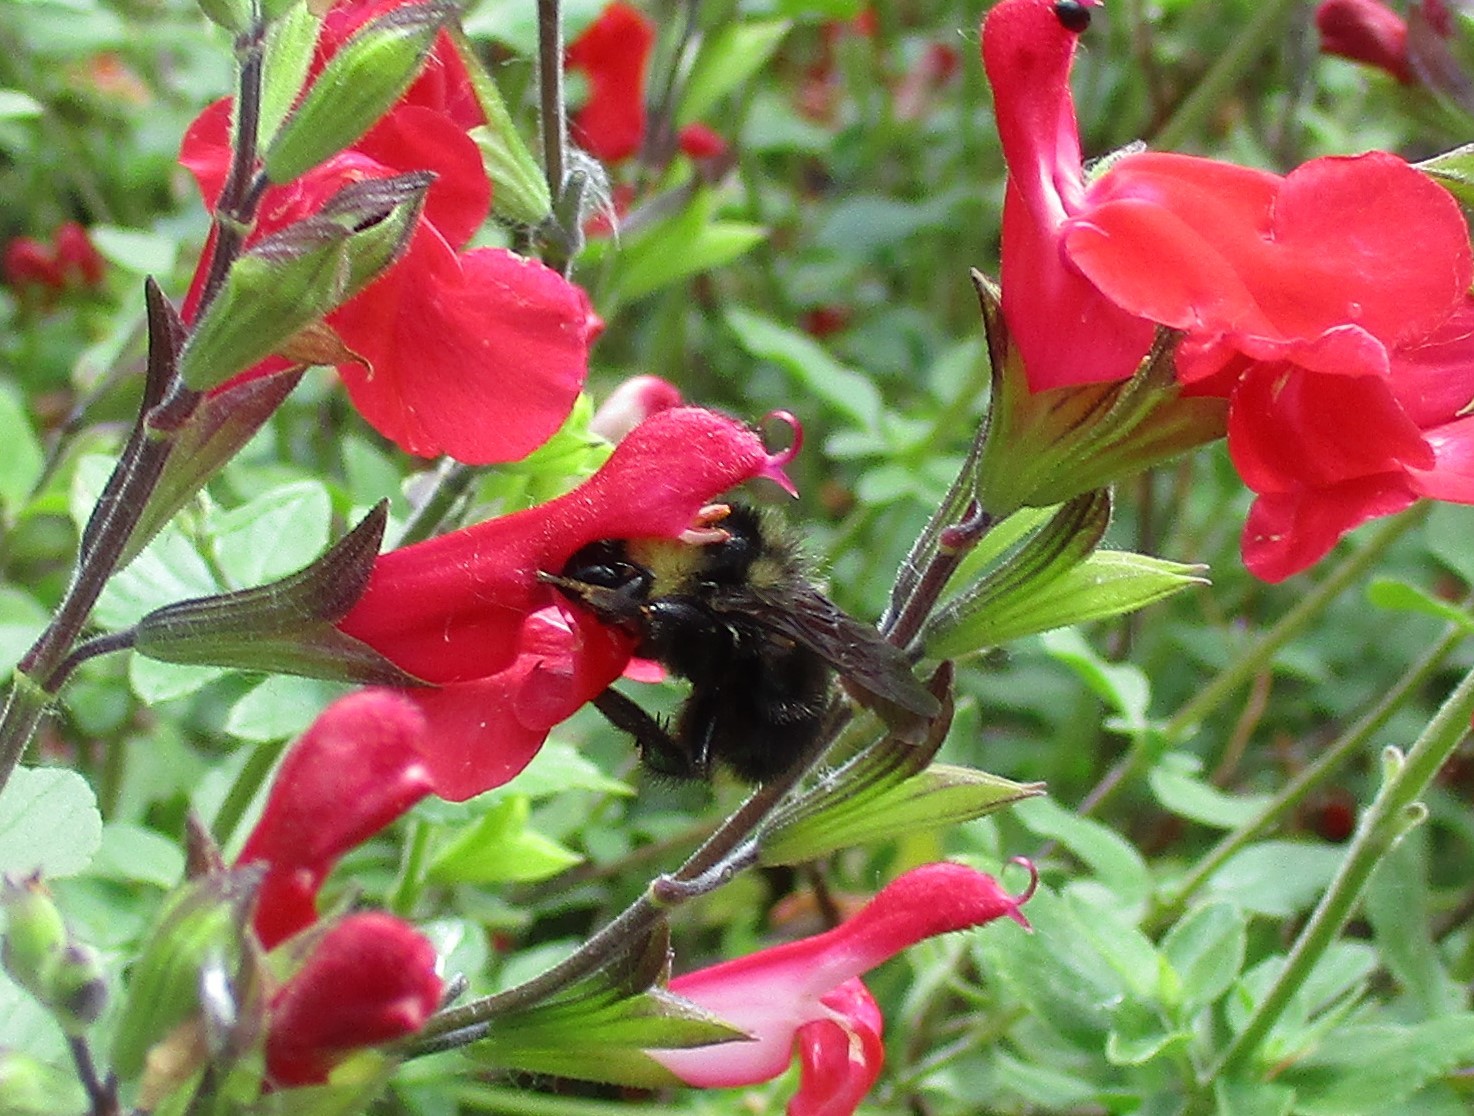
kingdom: Animalia
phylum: Arthropoda
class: Insecta
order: Hymenoptera
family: Apidae
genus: Bombus
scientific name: Bombus californicus
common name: California bumble bee
